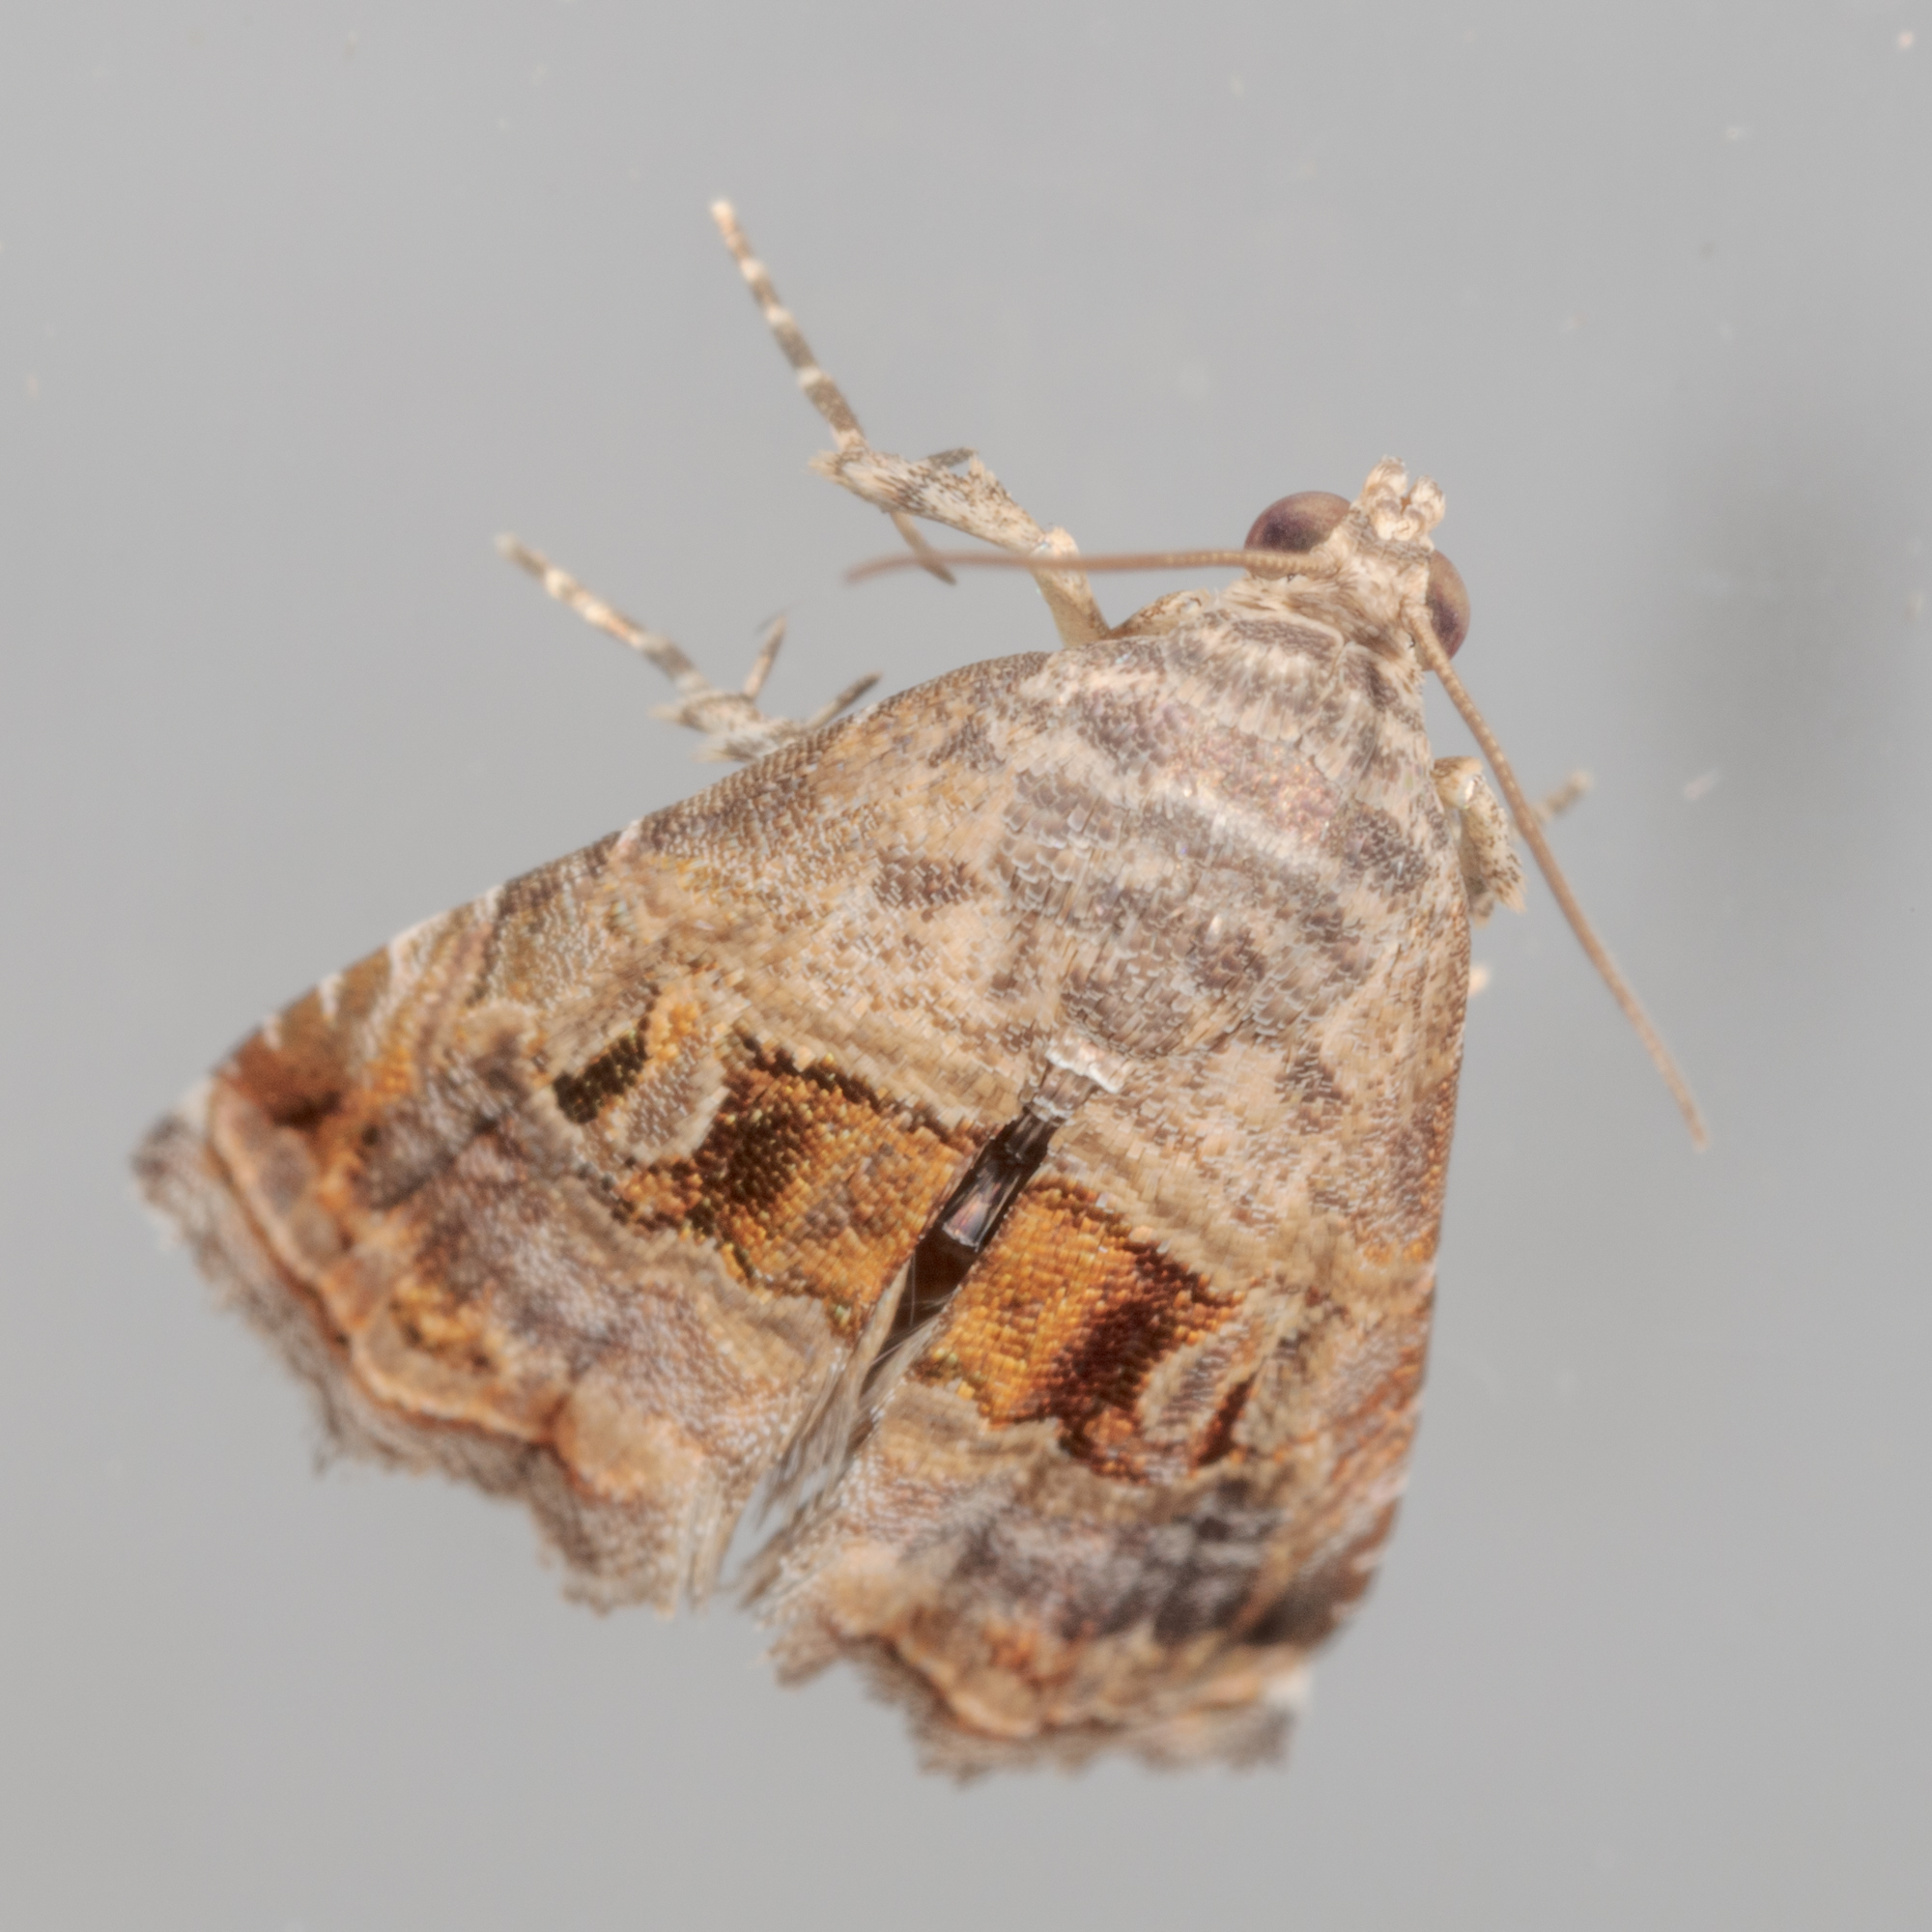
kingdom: Animalia
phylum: Arthropoda
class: Insecta
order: Lepidoptera
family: Noctuidae
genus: Tripudia
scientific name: Tripudia quadrifera
